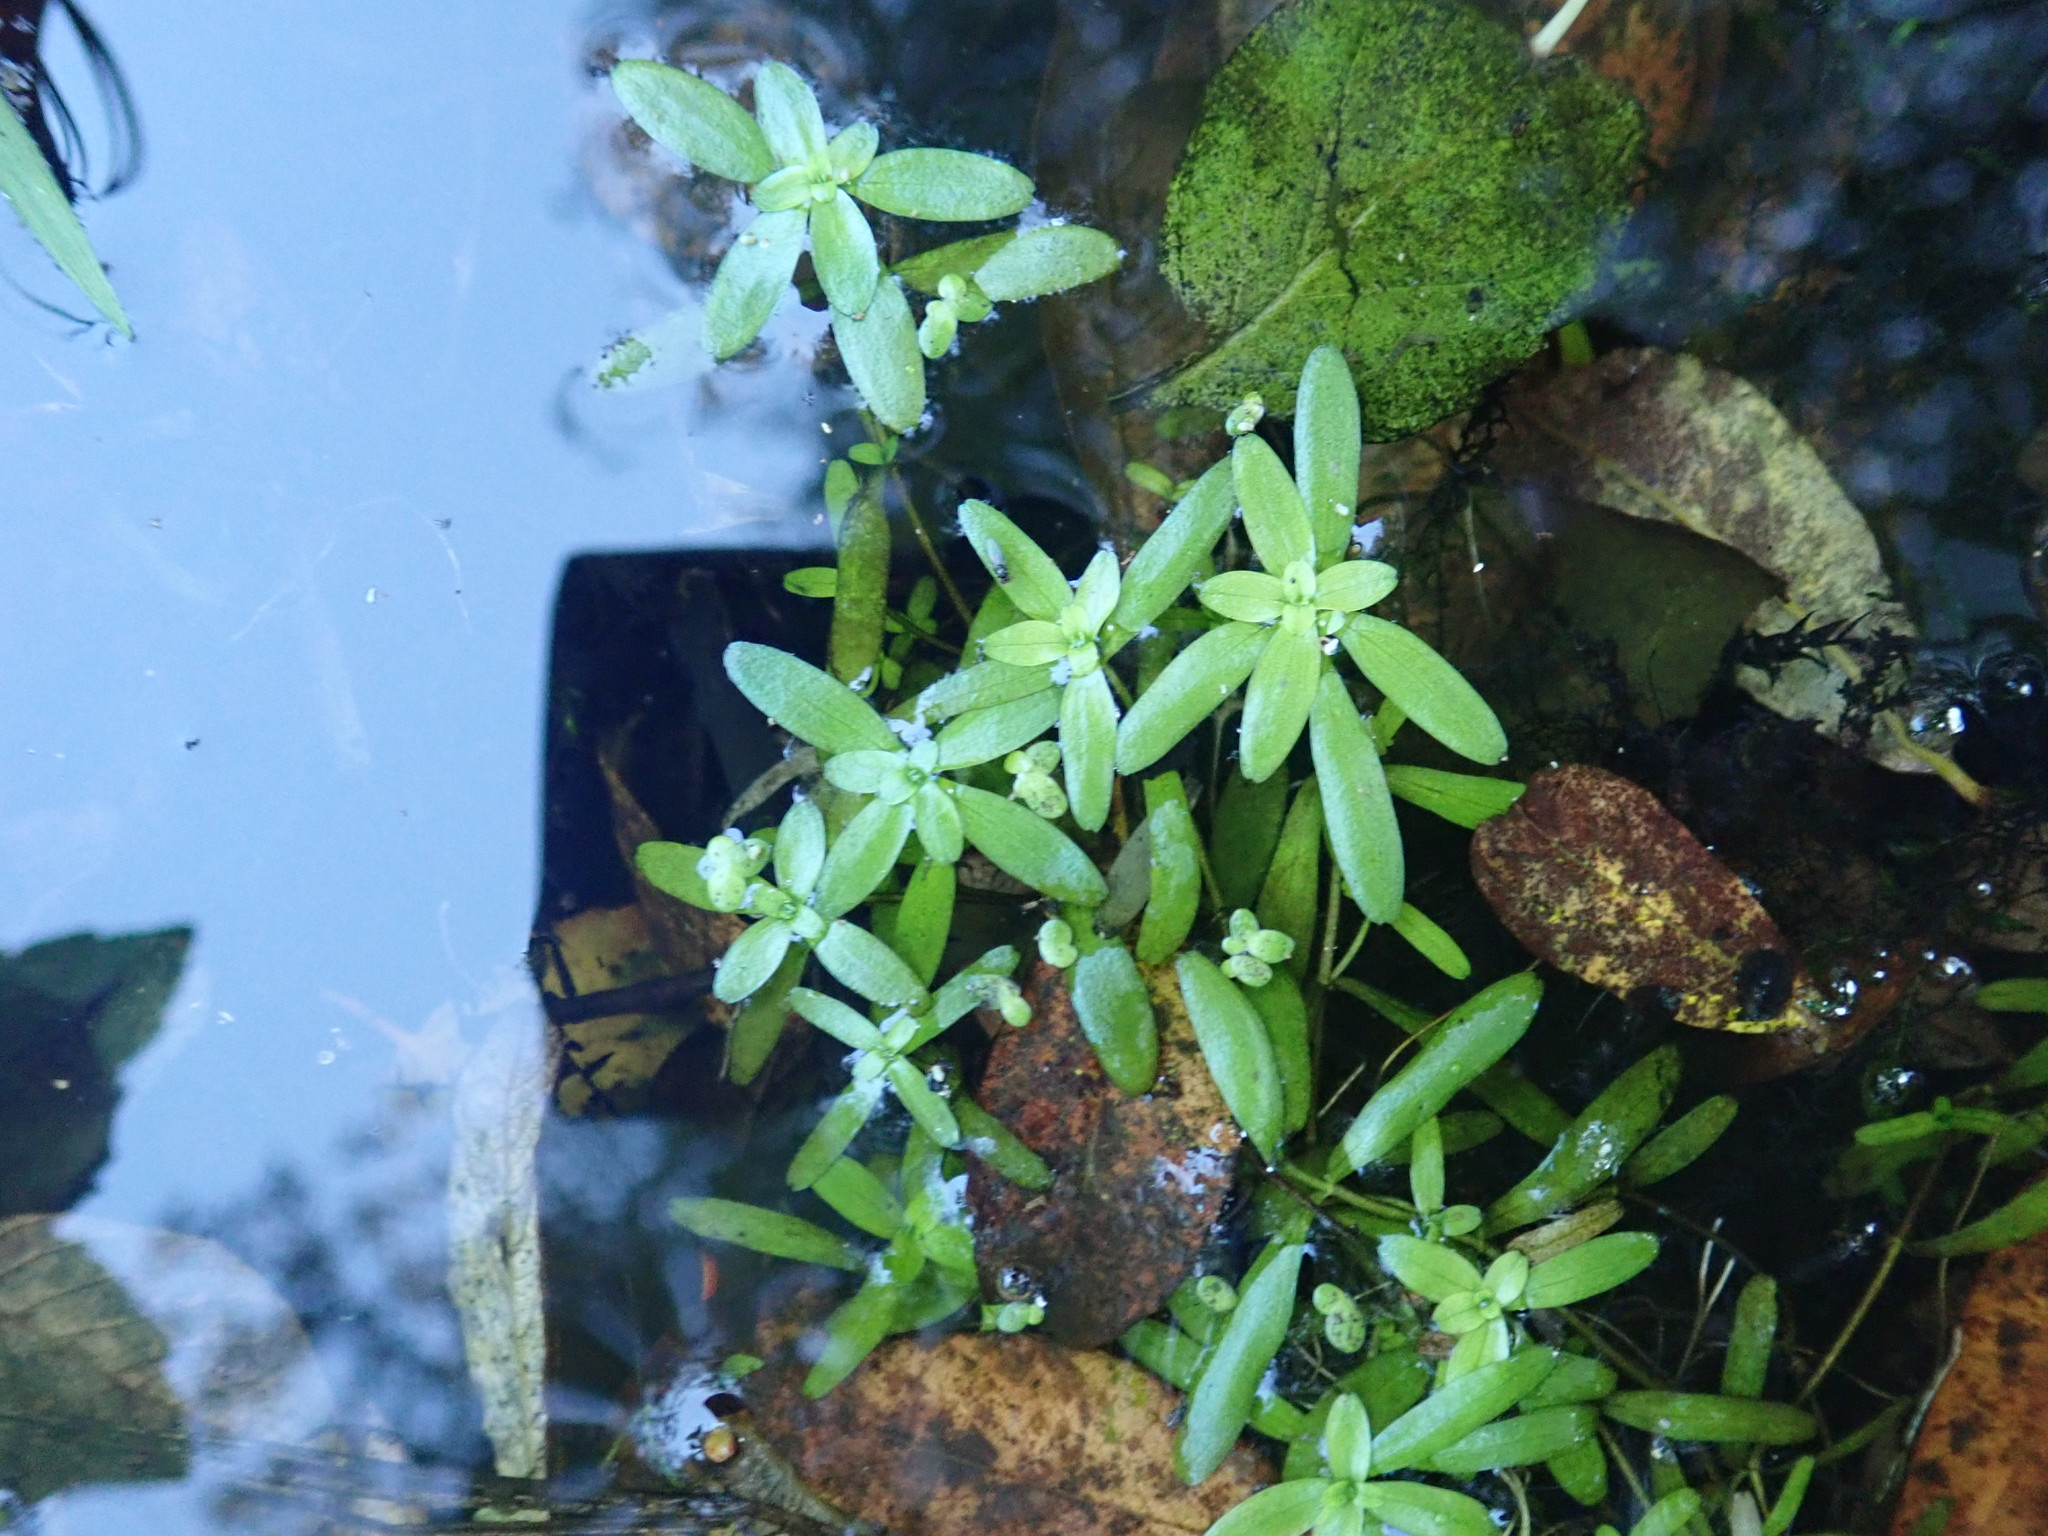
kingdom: Plantae
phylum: Tracheophyta
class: Magnoliopsida
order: Lamiales
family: Plantaginaceae
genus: Callitriche
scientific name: Callitriche
